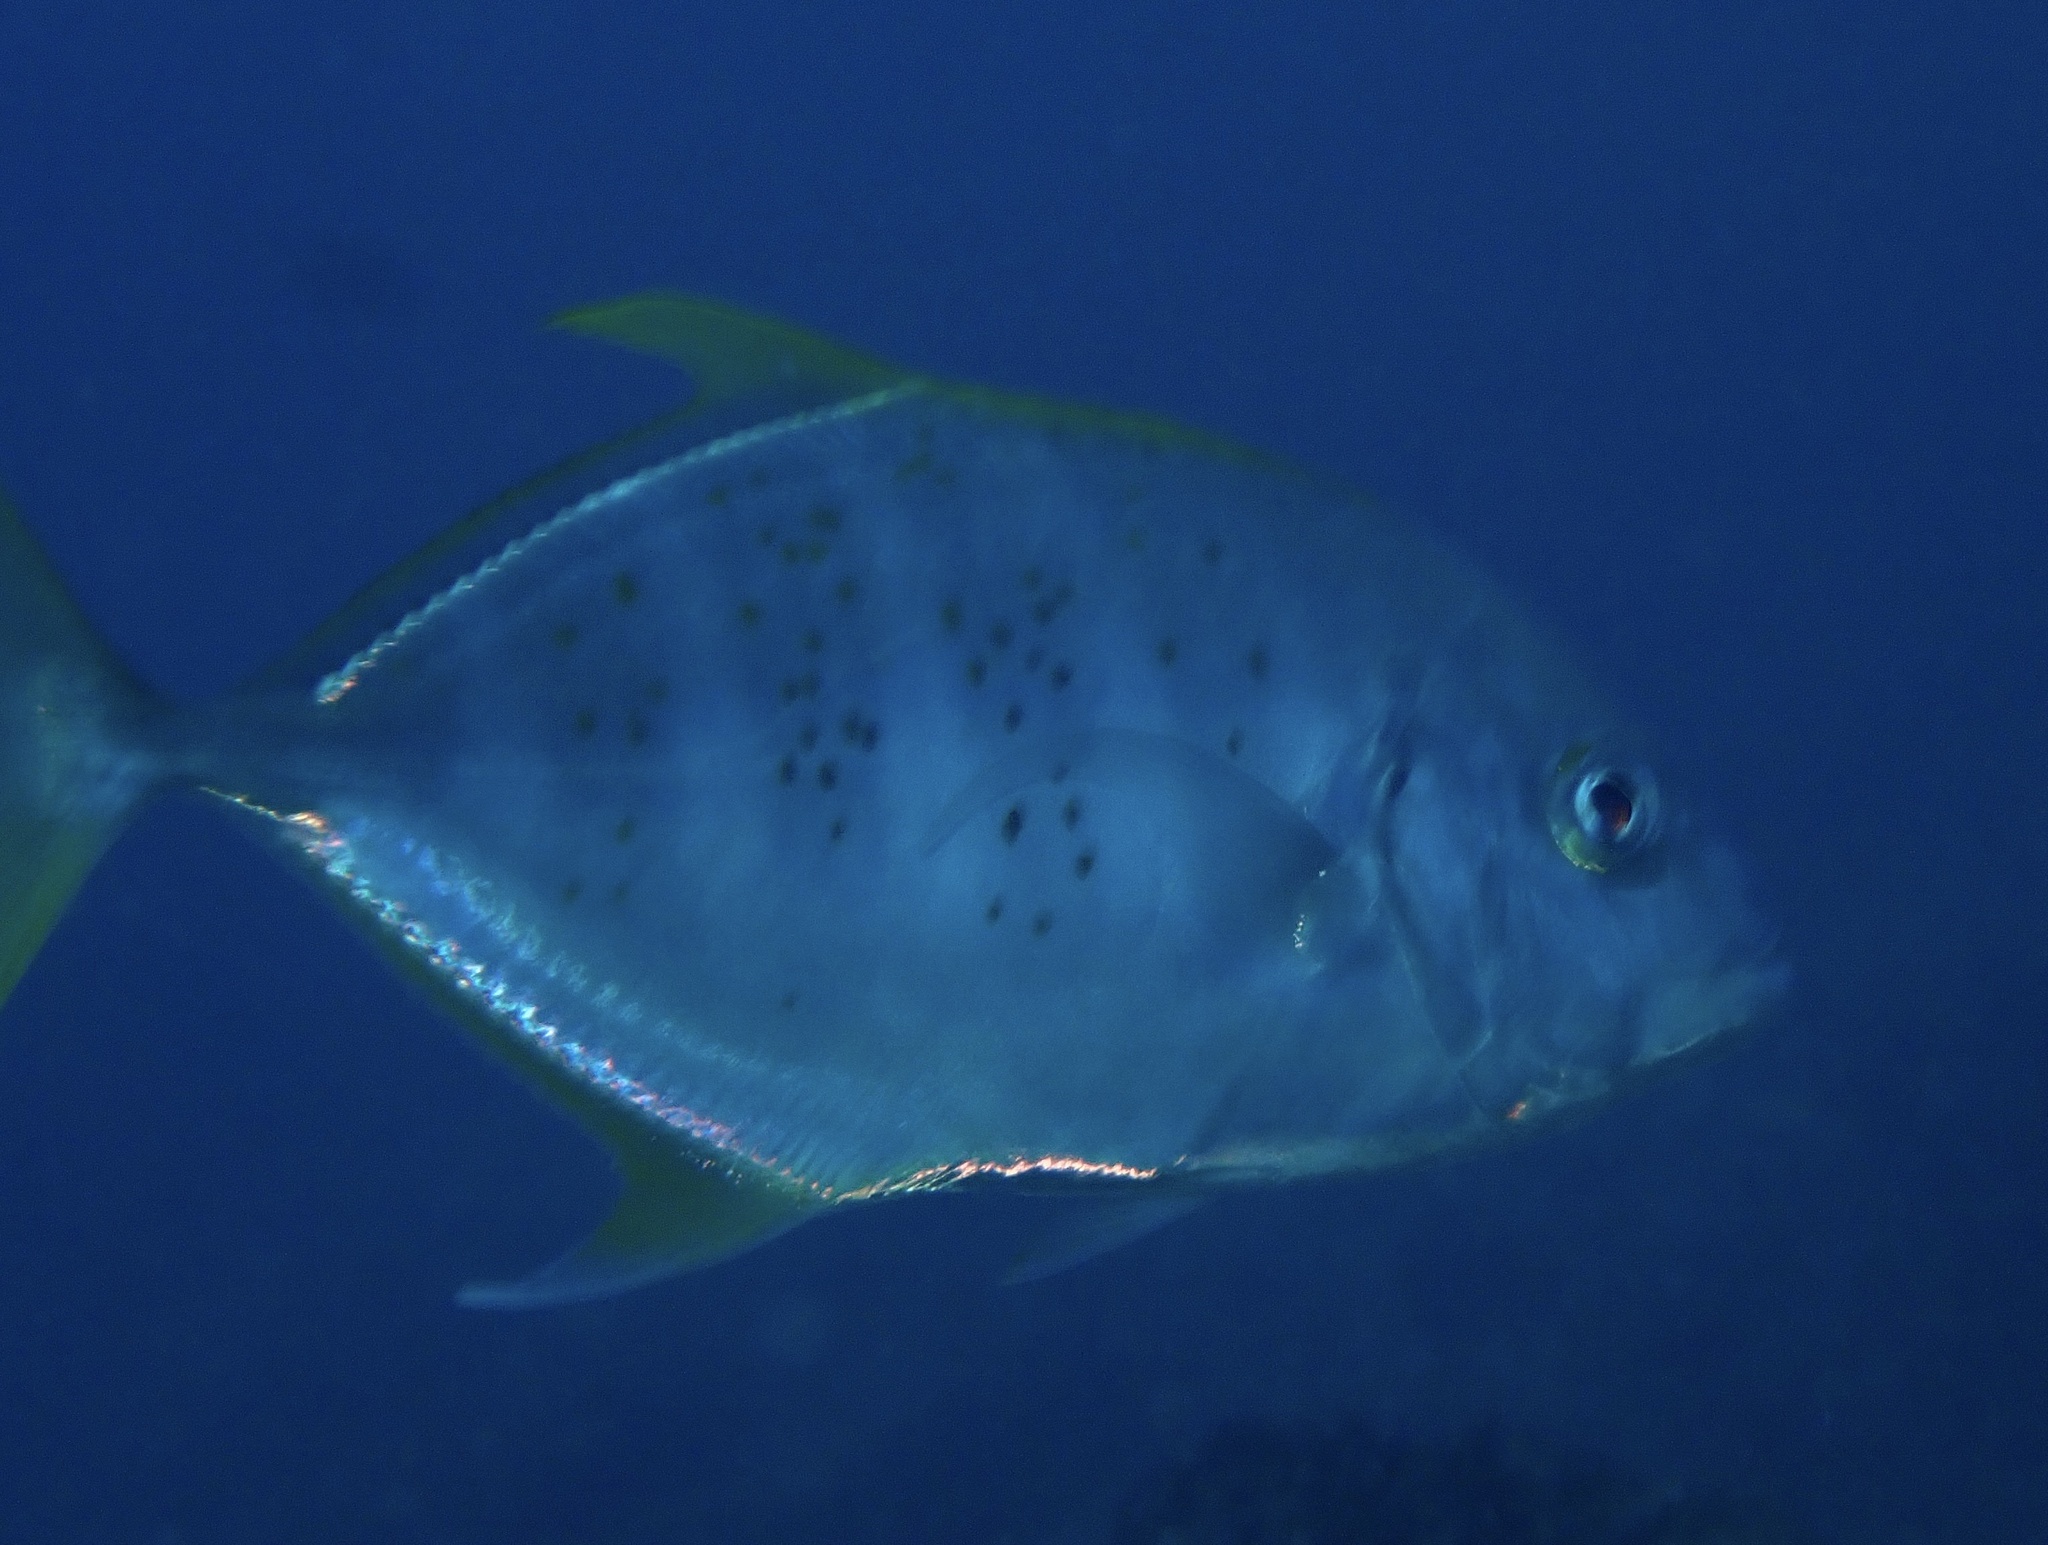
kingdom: Animalia
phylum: Chordata
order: Perciformes
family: Carangidae
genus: Carangoides
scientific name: Carangoides Turrum fulvoguttatum
